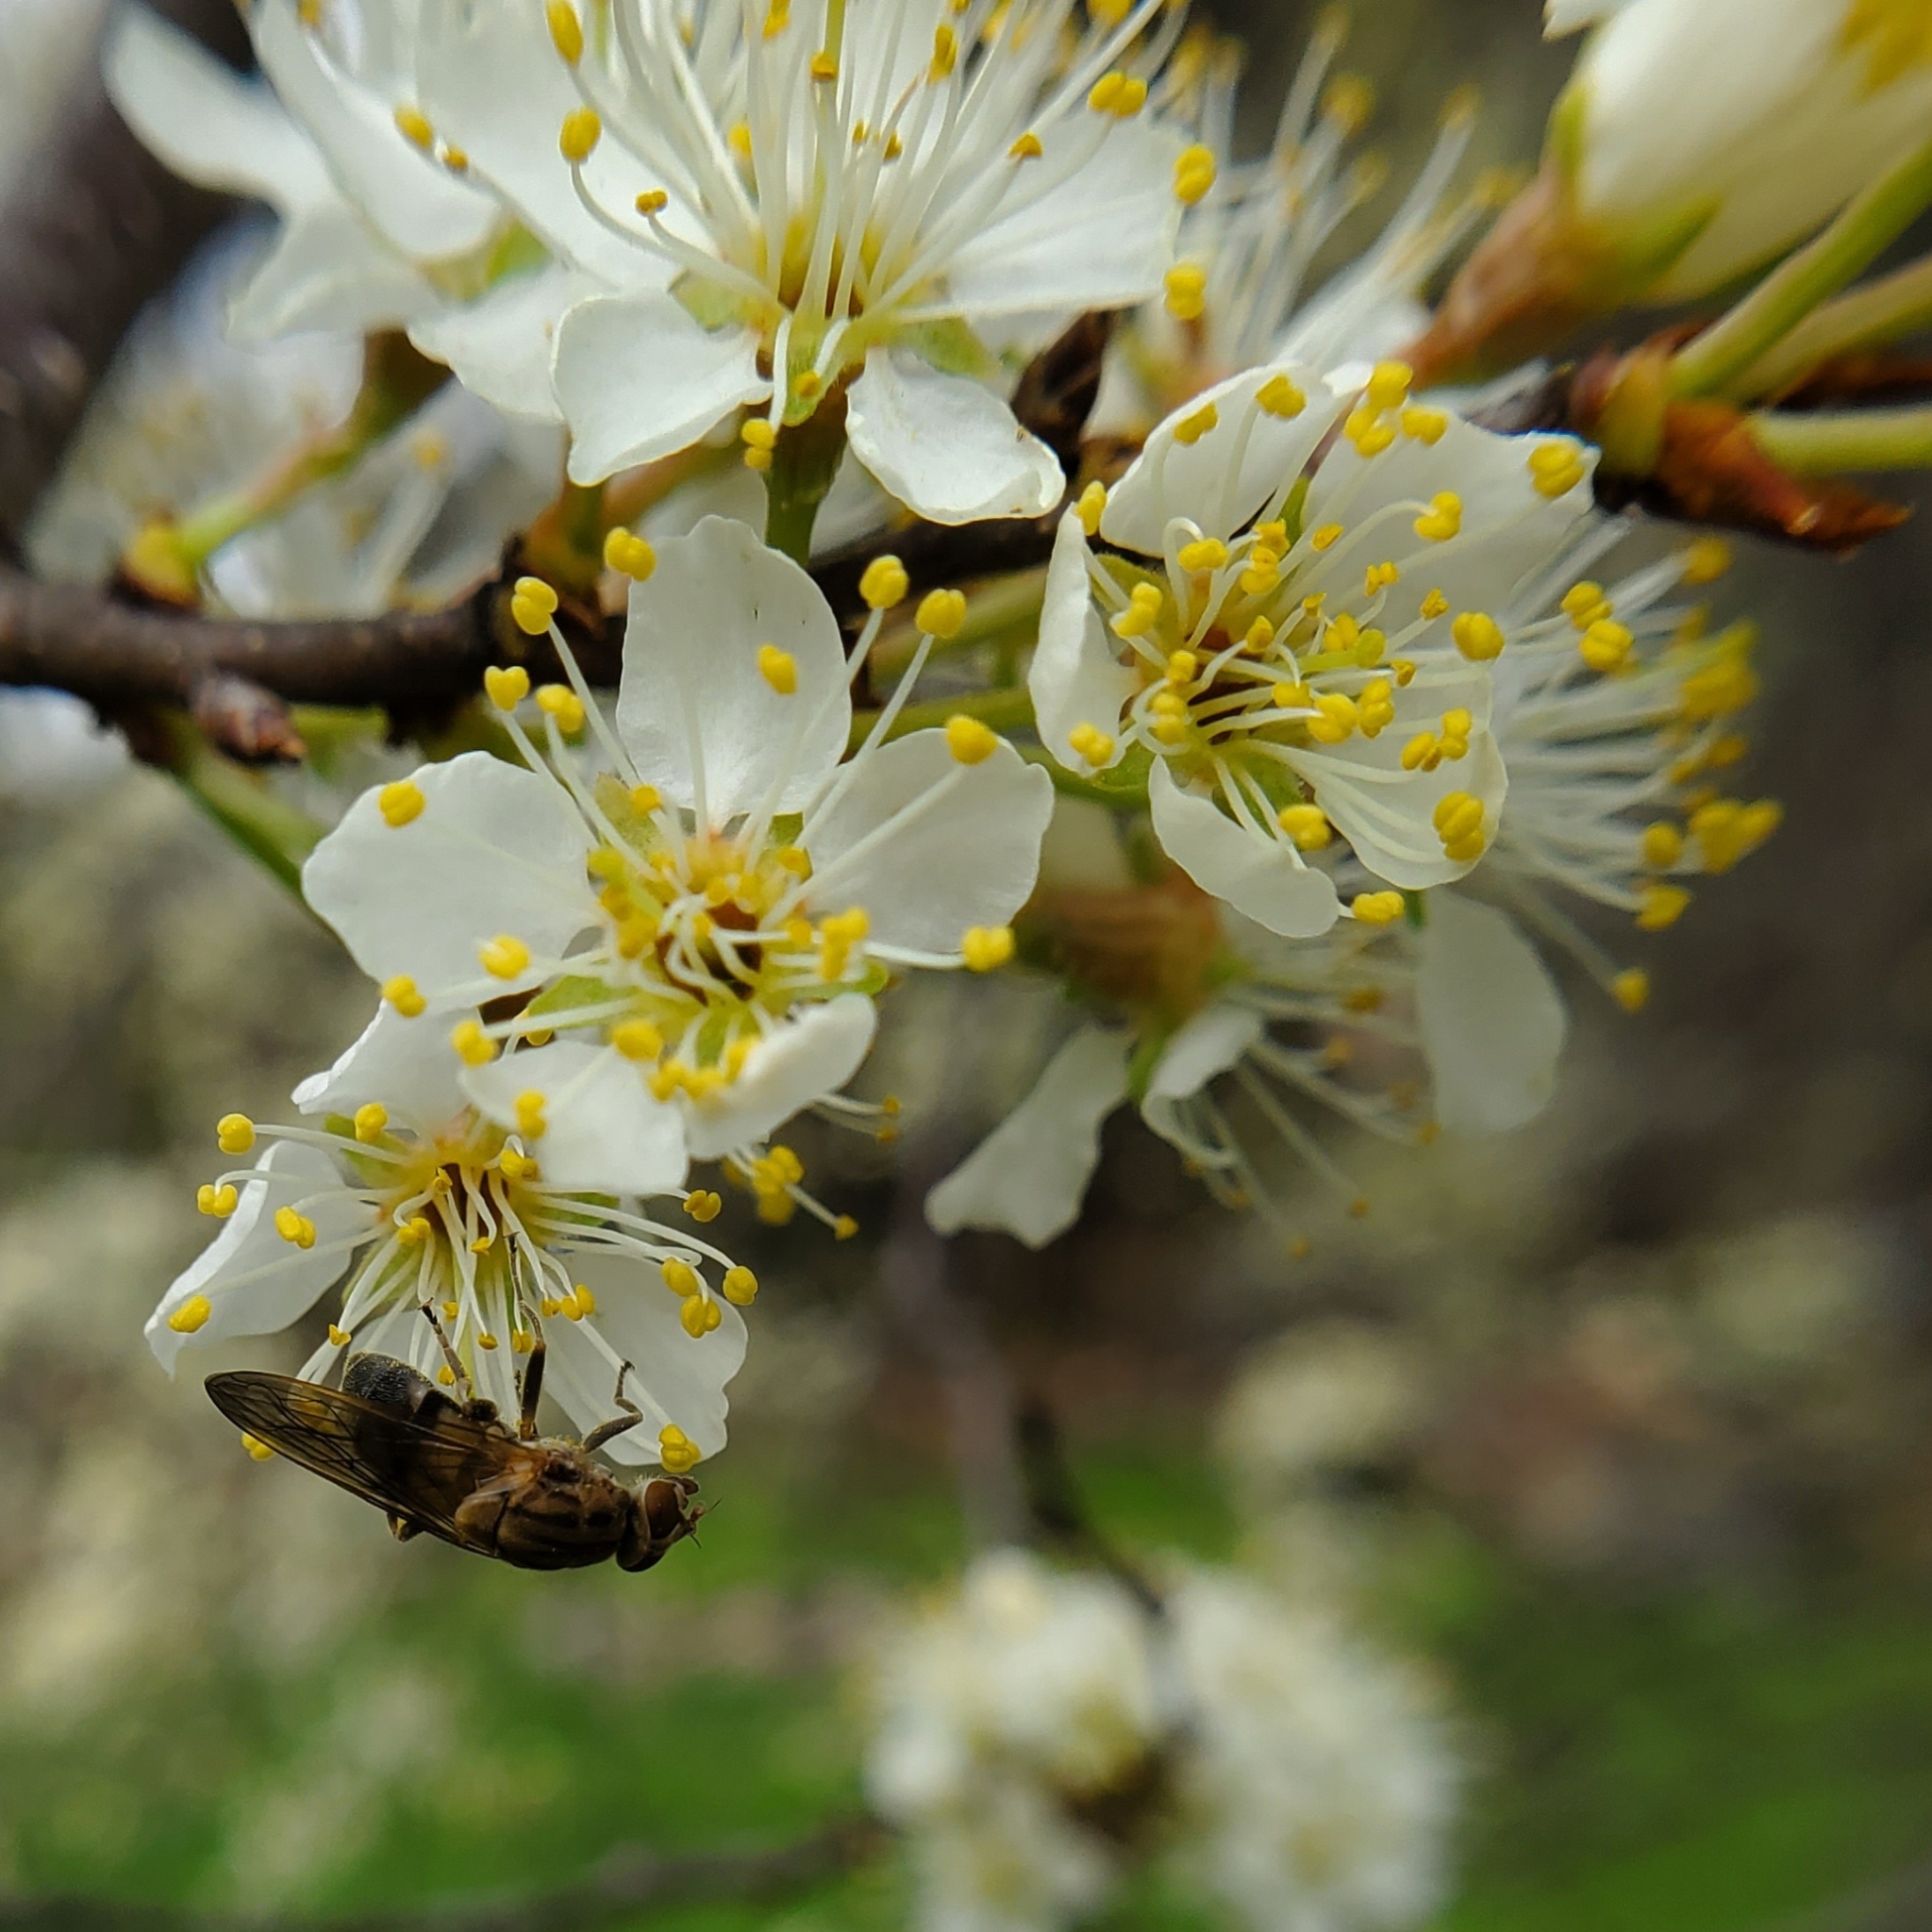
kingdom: Animalia
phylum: Arthropoda
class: Insecta
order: Diptera
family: Syrphidae
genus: Brachyopa
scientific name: Brachyopa vacua
